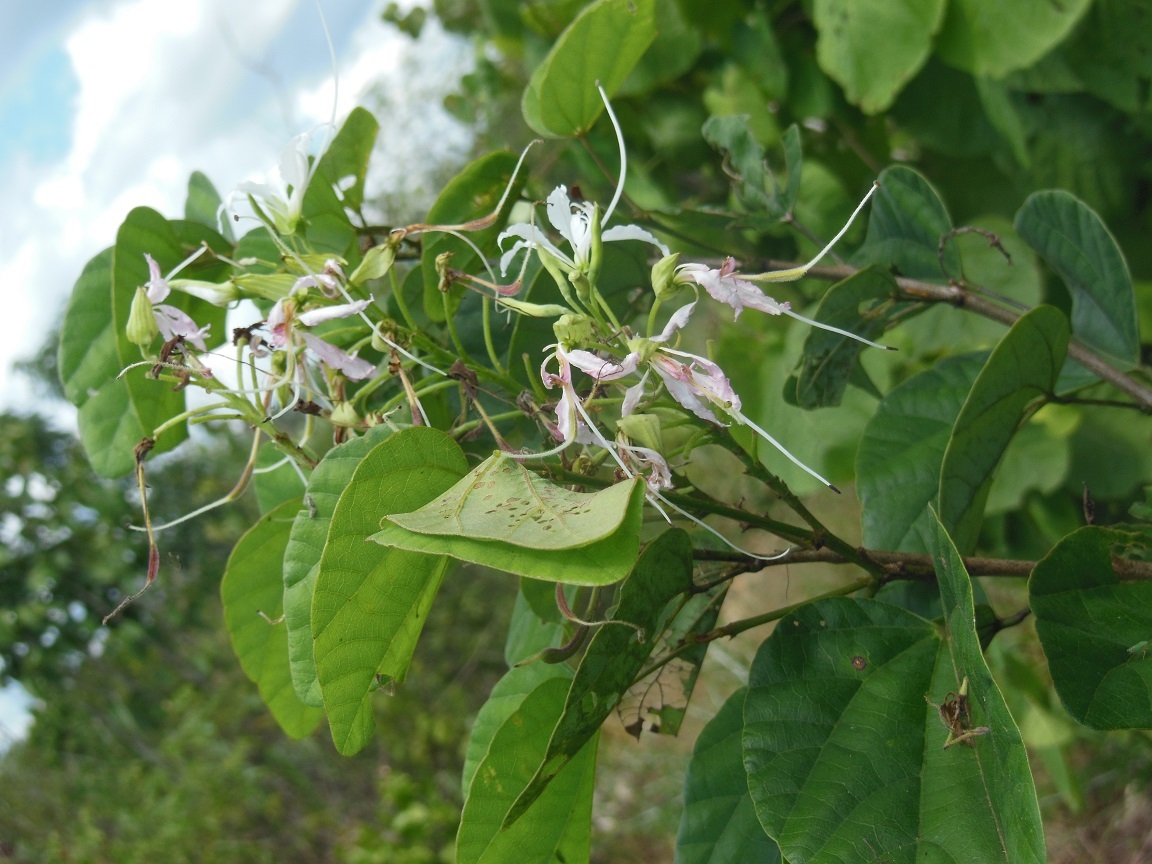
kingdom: Plantae
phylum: Tracheophyta
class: Magnoliopsida
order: Fabales
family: Fabaceae
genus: Bauhinia
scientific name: Bauhinia divaricata
